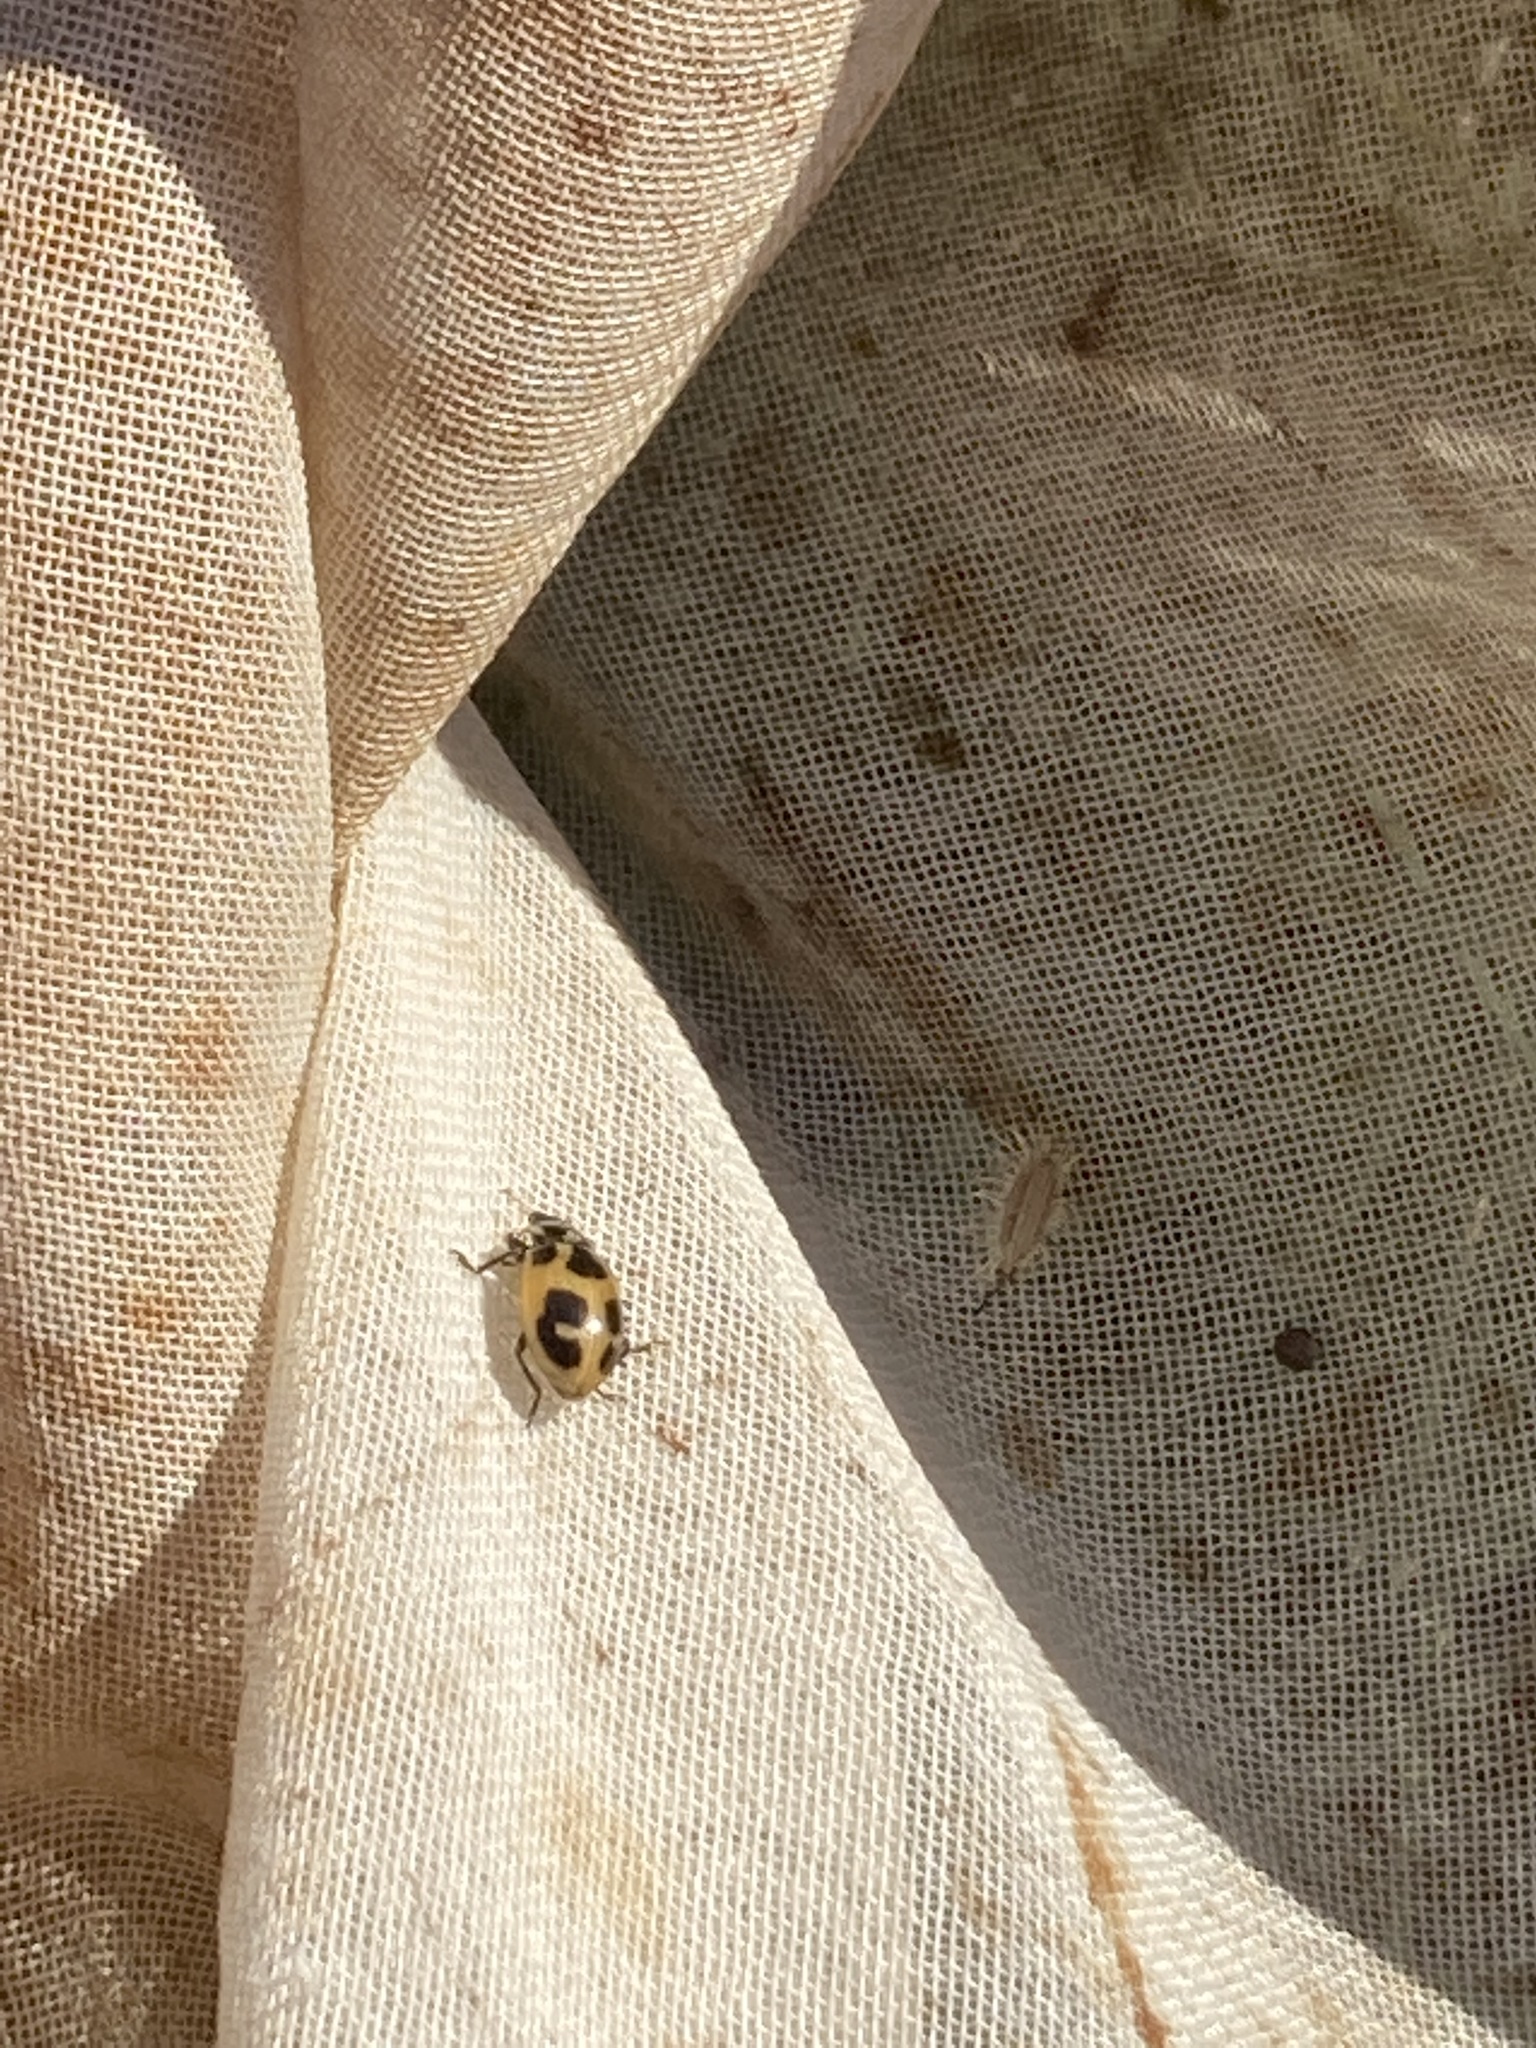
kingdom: Animalia
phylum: Arthropoda
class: Insecta
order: Coleoptera
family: Coccinellidae
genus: Hippodamia
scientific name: Hippodamia parenthesis
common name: Parenthesis lady beetle
